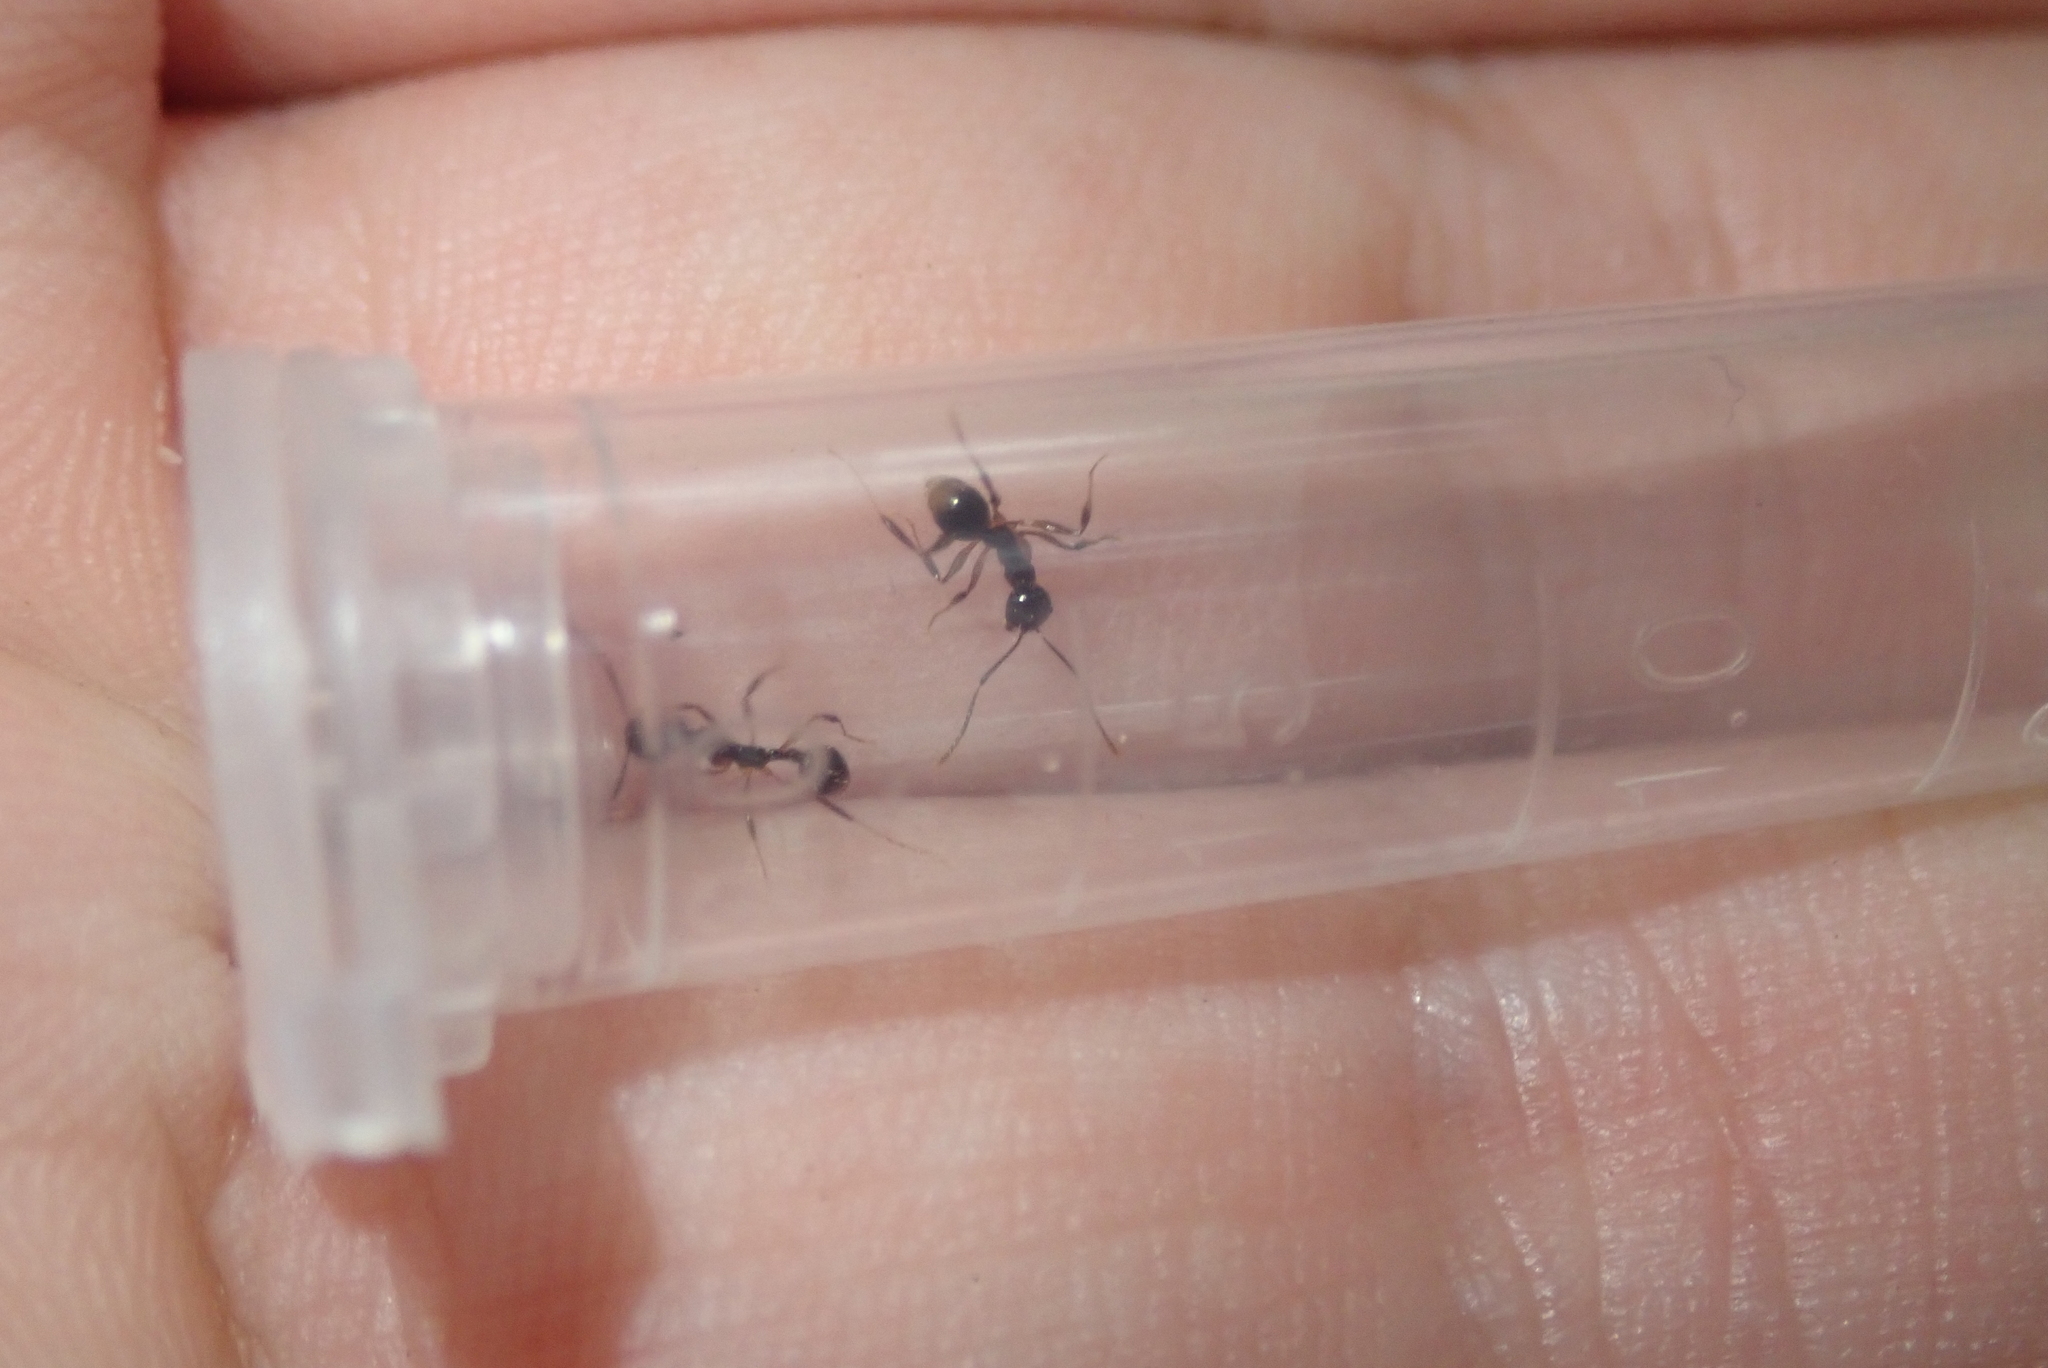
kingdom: Animalia
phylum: Arthropoda
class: Insecta
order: Hymenoptera
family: Formicidae
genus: Aphaenogaster
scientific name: Aphaenogaster picea
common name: Pitch-black collared ant
